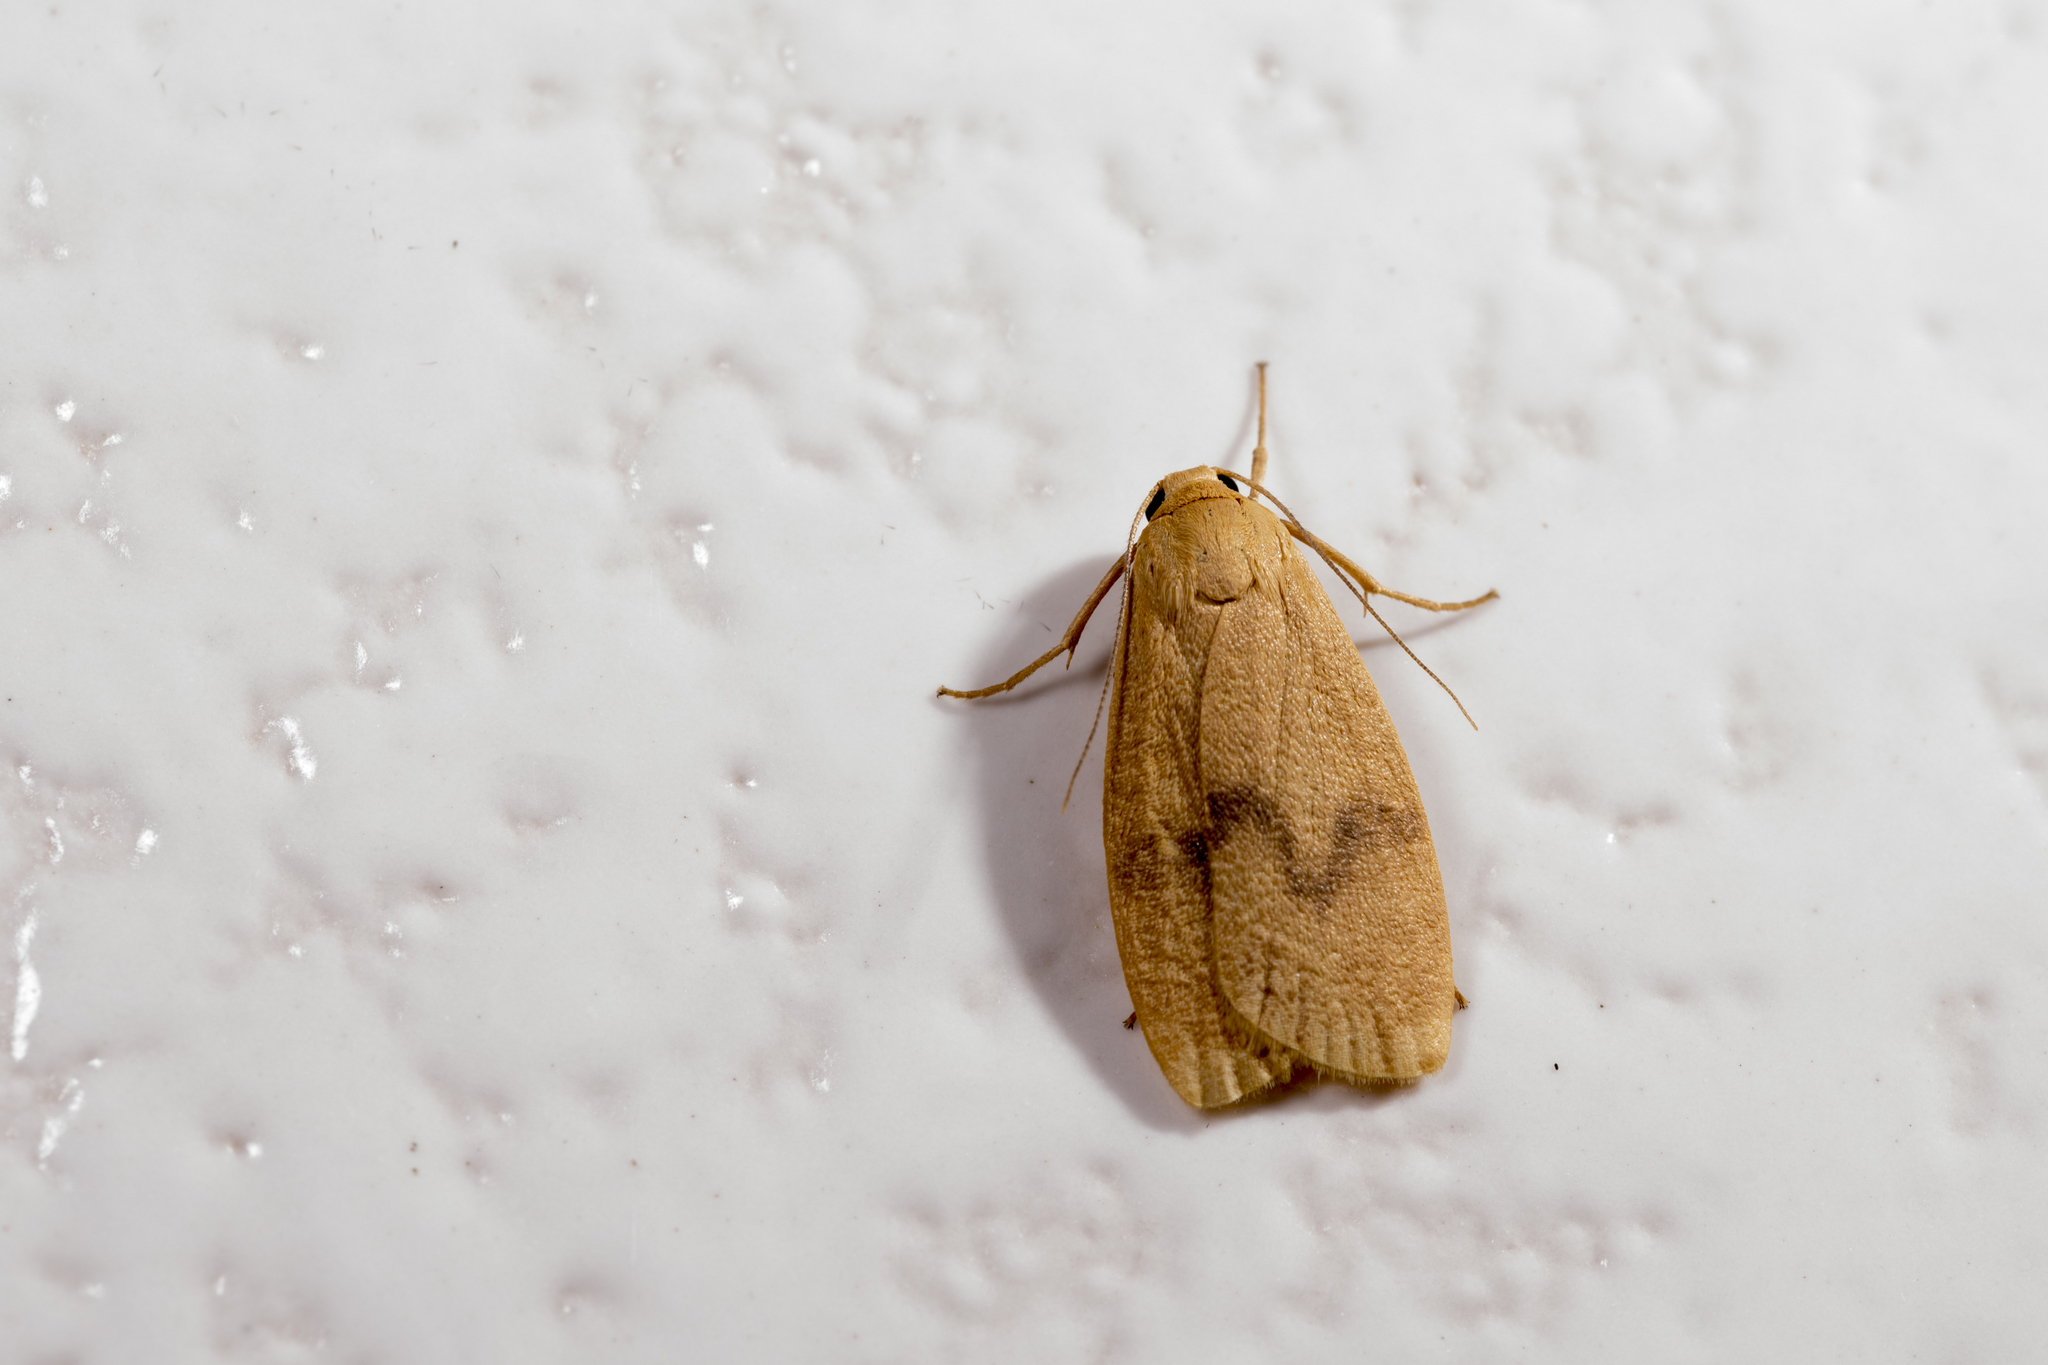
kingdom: Animalia
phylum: Arthropoda
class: Insecta
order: Lepidoptera
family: Erebidae
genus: Teuloma
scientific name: Teuloma tainebula
